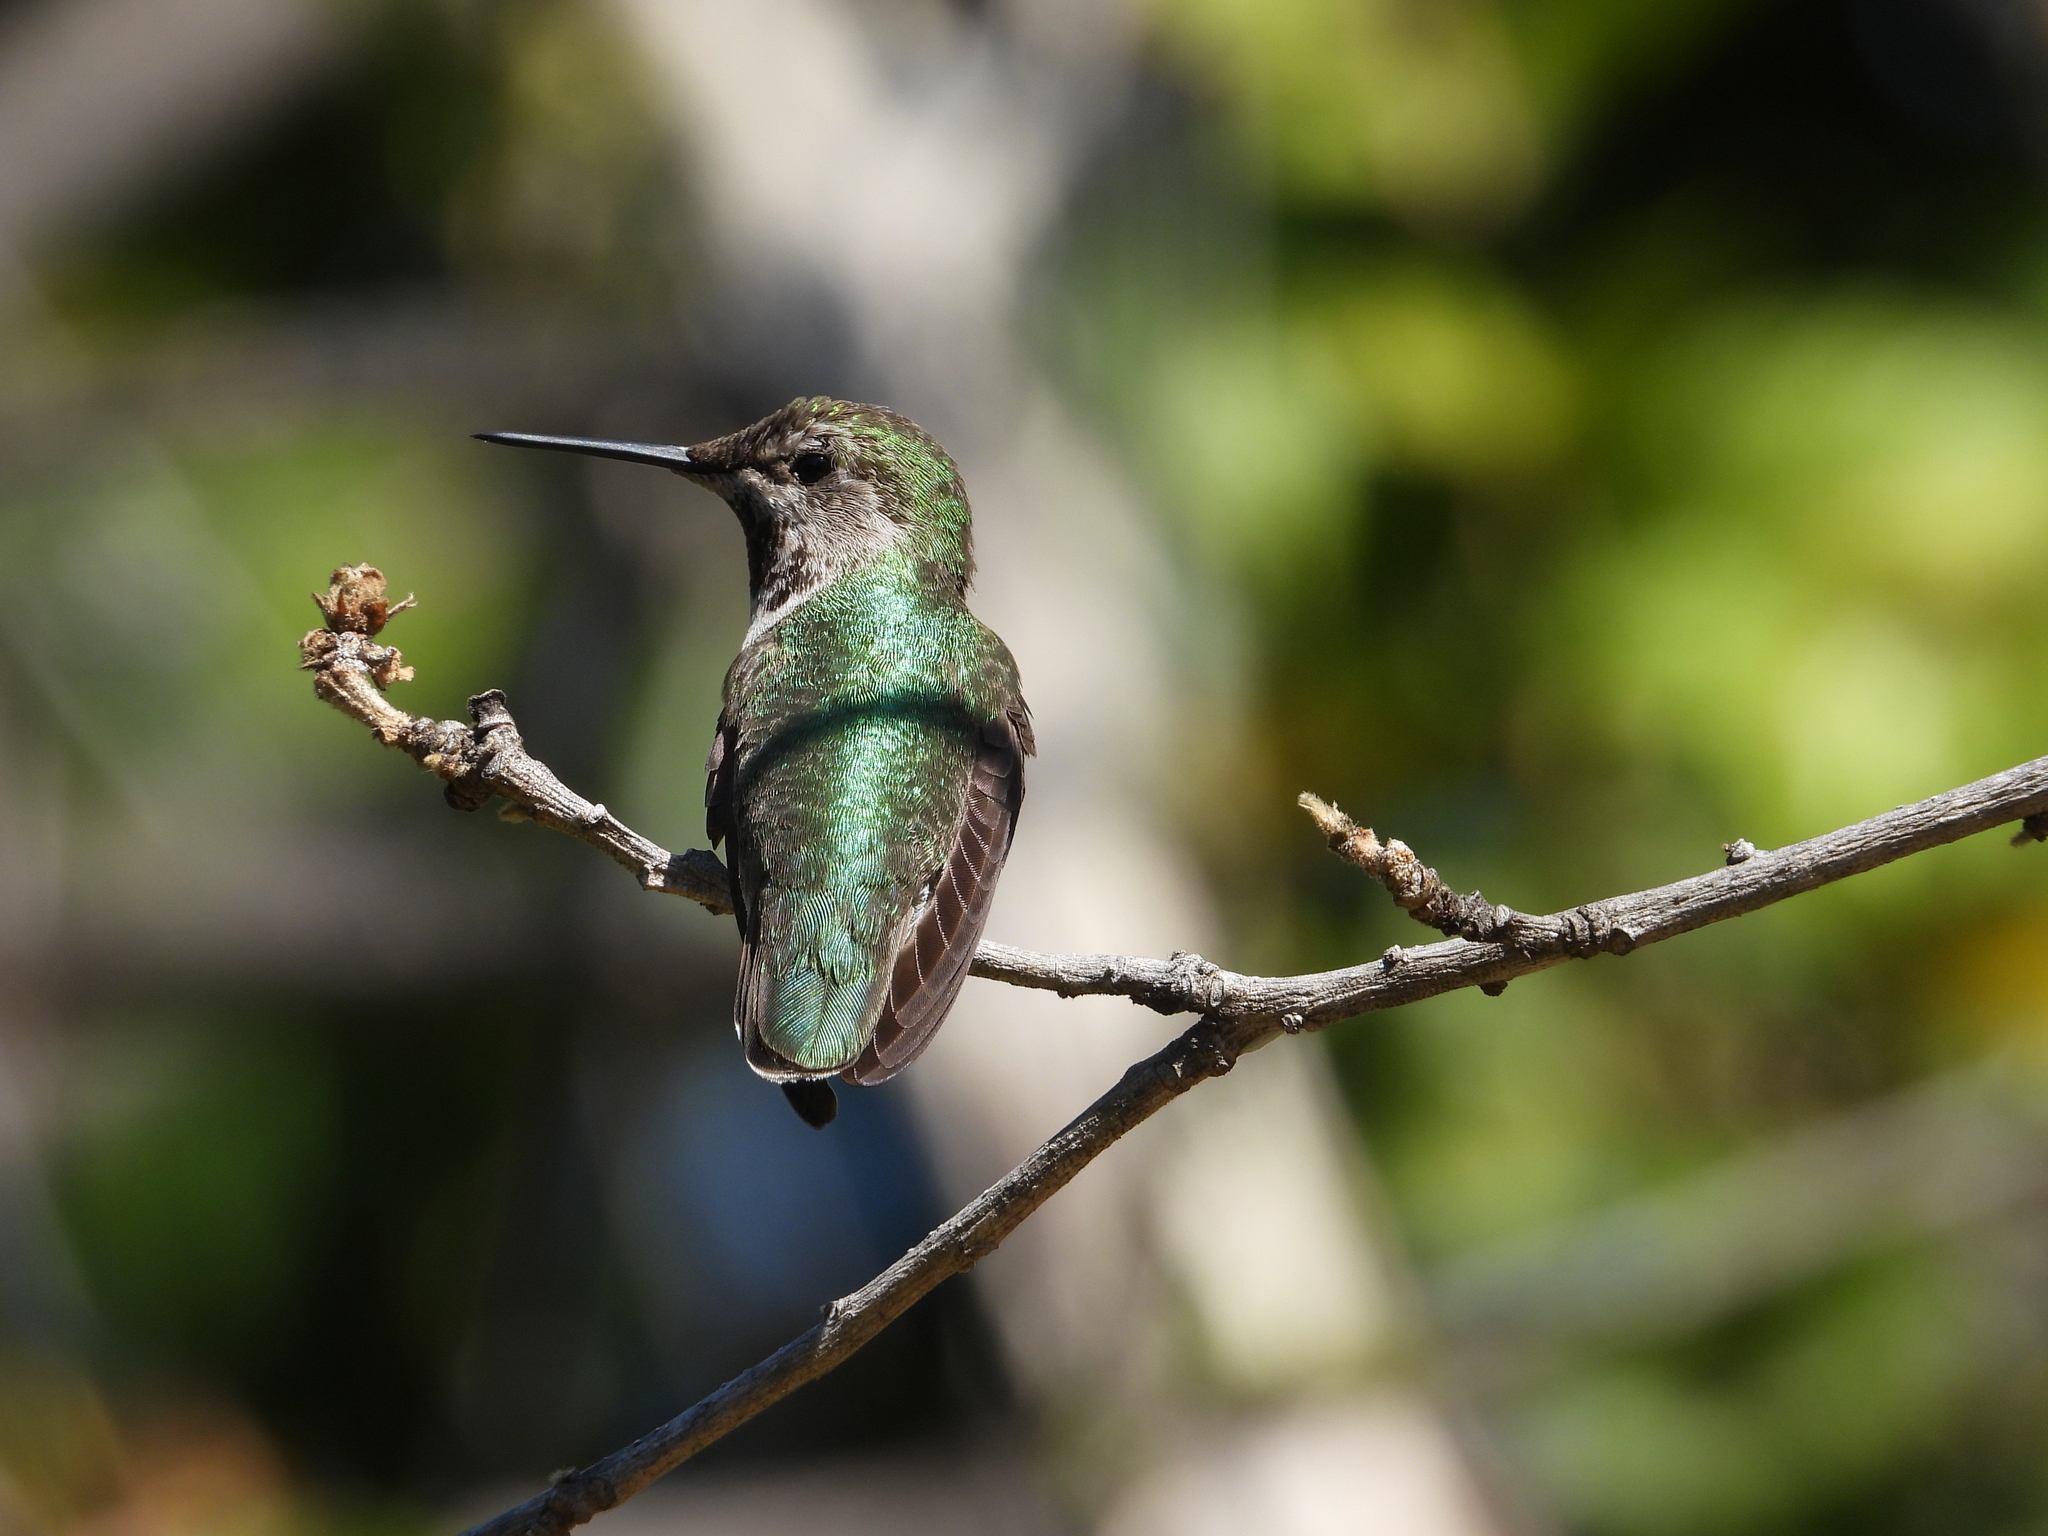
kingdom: Animalia
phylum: Chordata
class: Aves
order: Apodiformes
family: Trochilidae
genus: Calypte
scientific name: Calypte anna
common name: Anna's hummingbird
